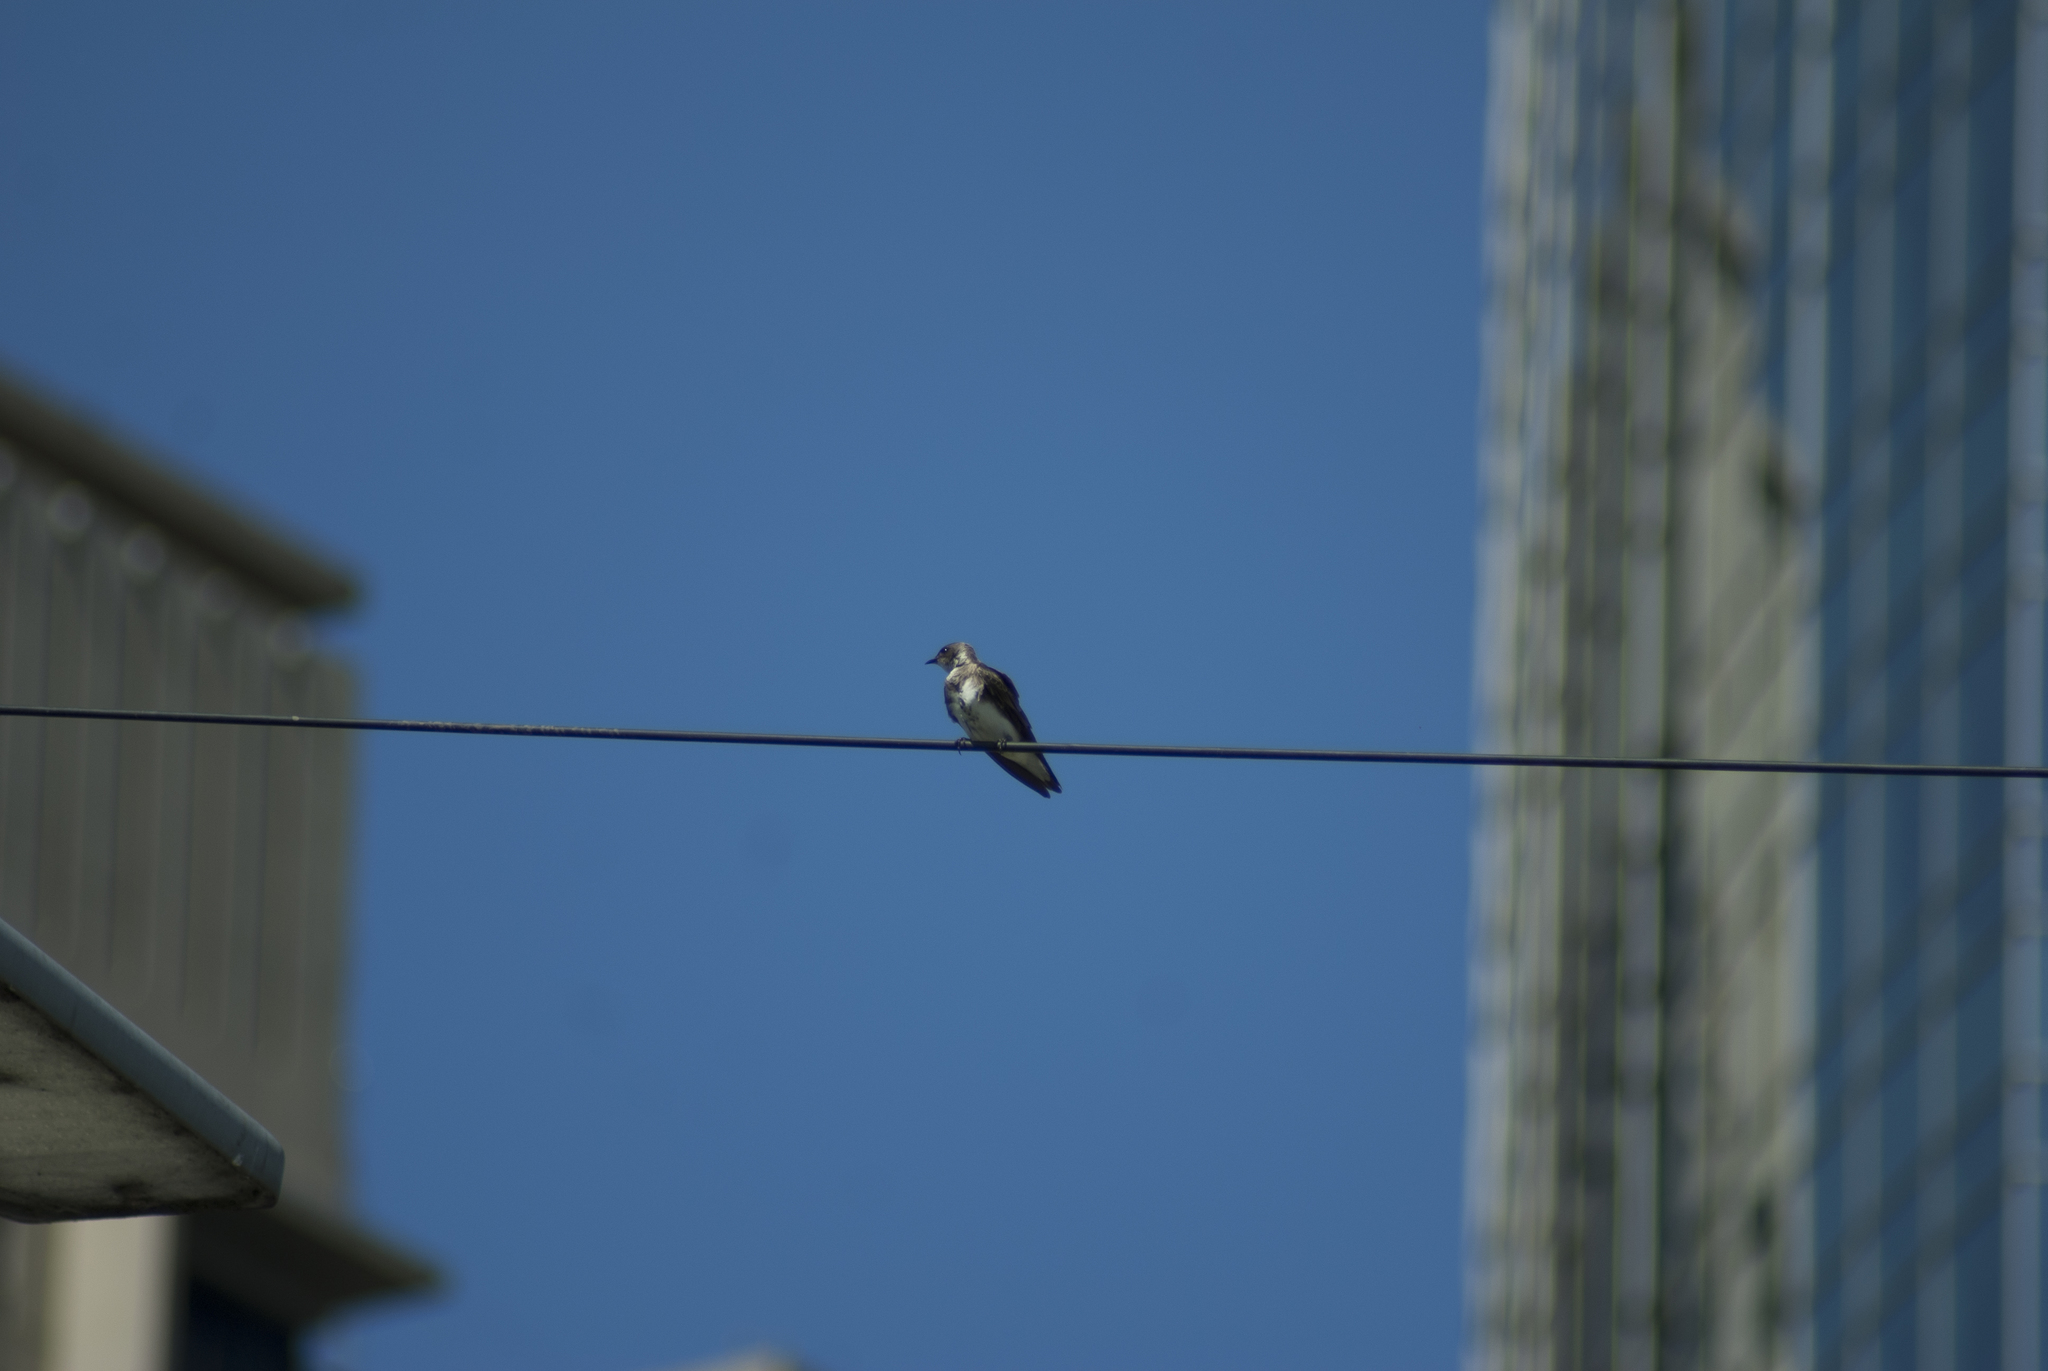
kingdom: Animalia
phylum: Chordata
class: Aves
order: Passeriformes
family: Hirundinidae
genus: Progne
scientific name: Progne tapera
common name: Brown-chested martin
